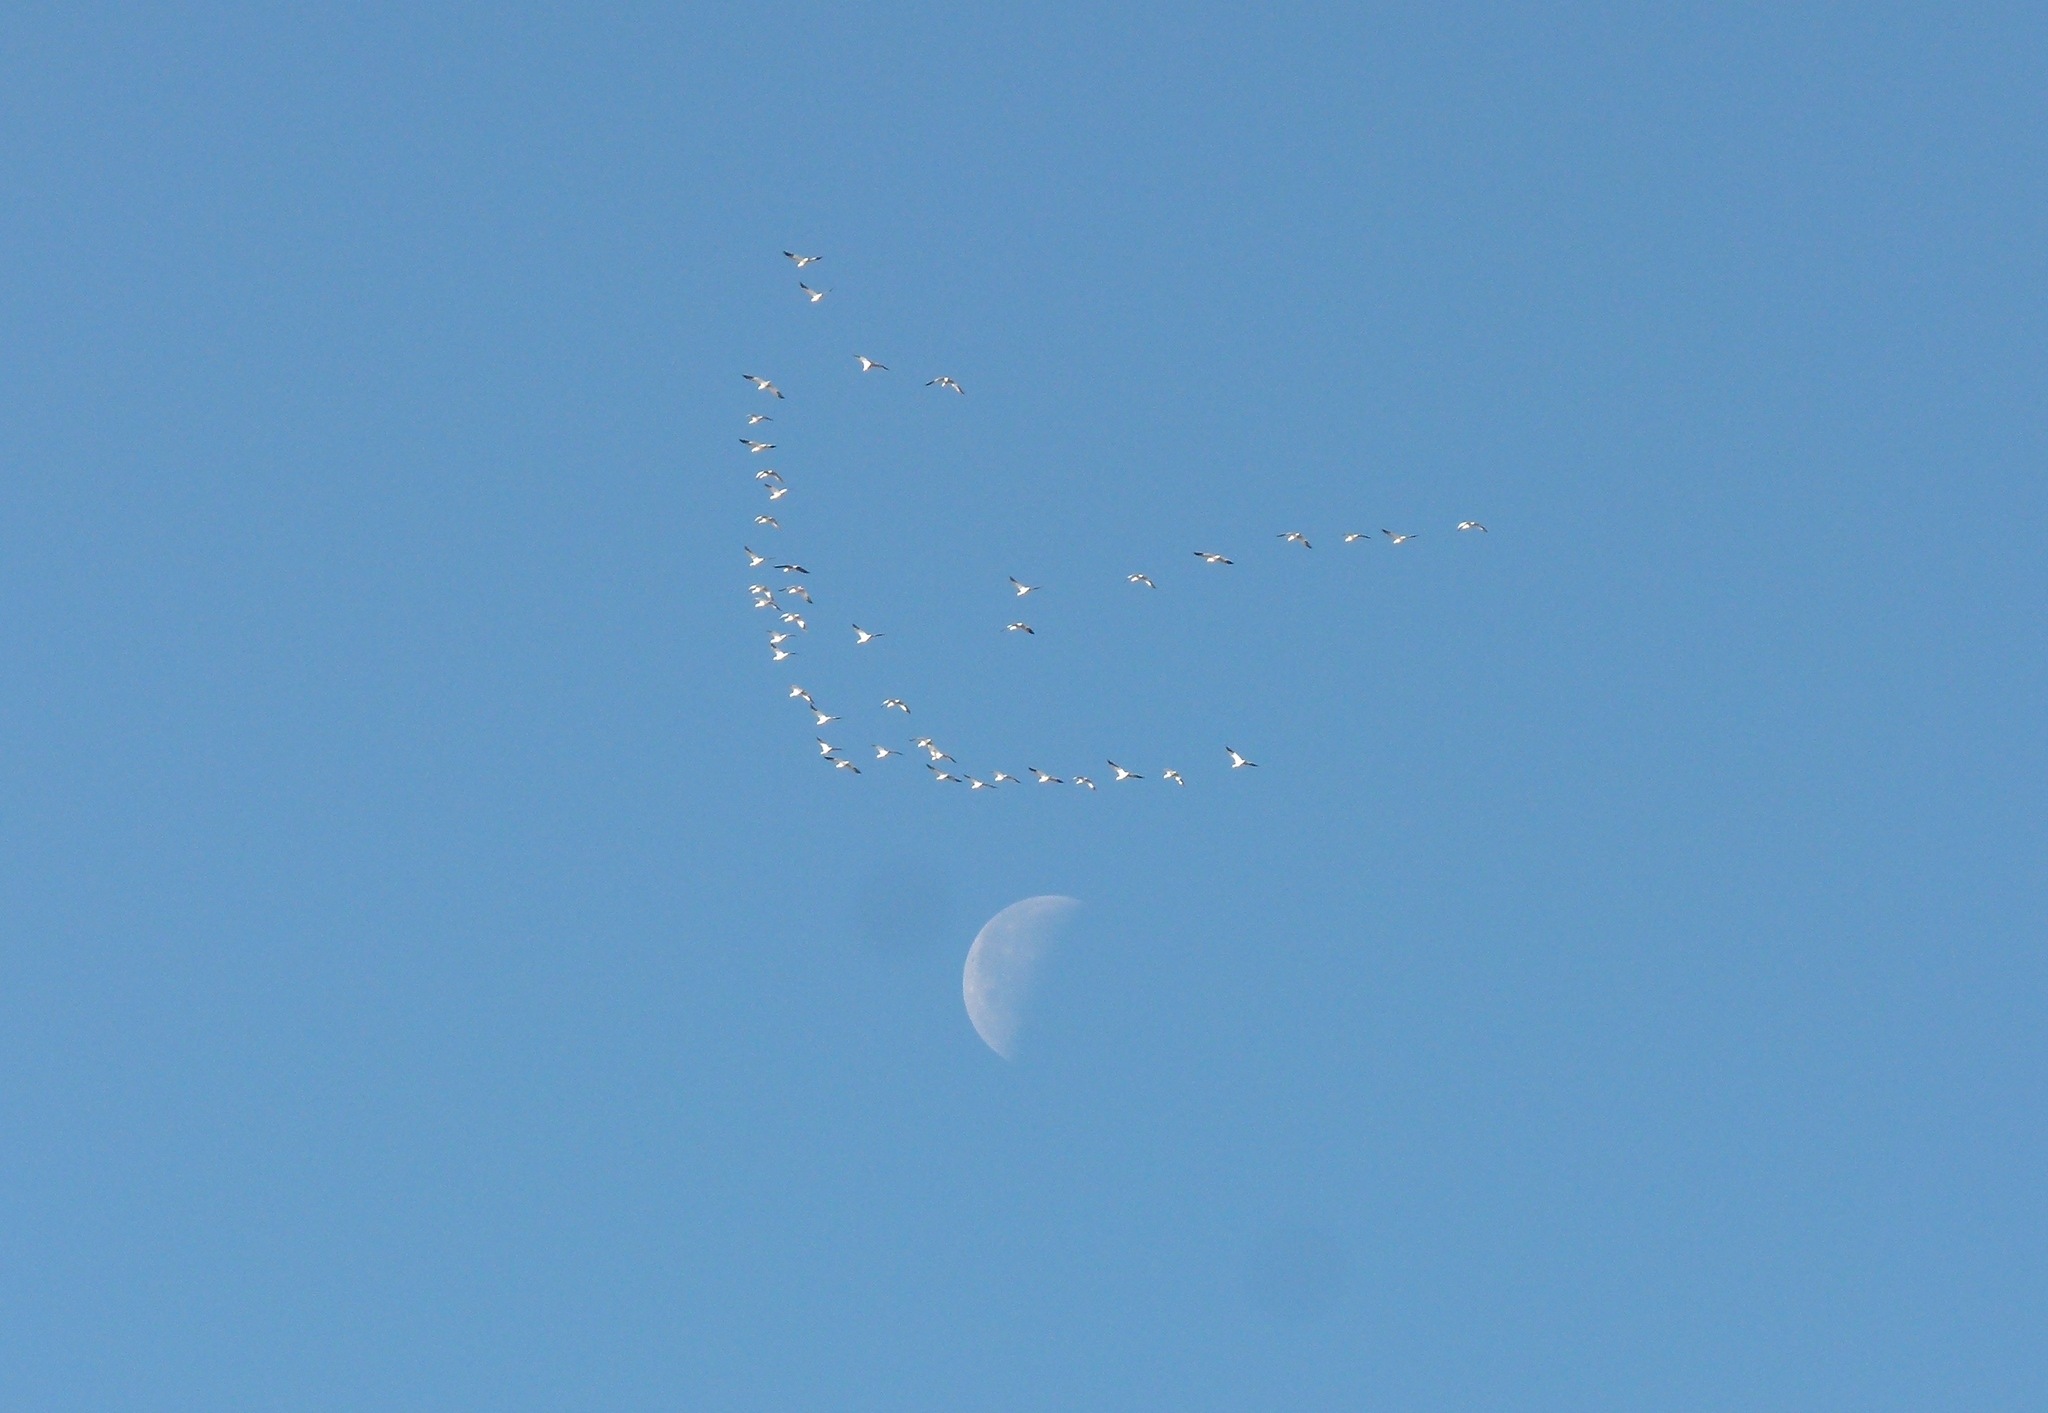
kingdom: Animalia
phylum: Chordata
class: Aves
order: Anseriformes
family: Anatidae
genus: Anser
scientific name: Anser caerulescens
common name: Snow goose
